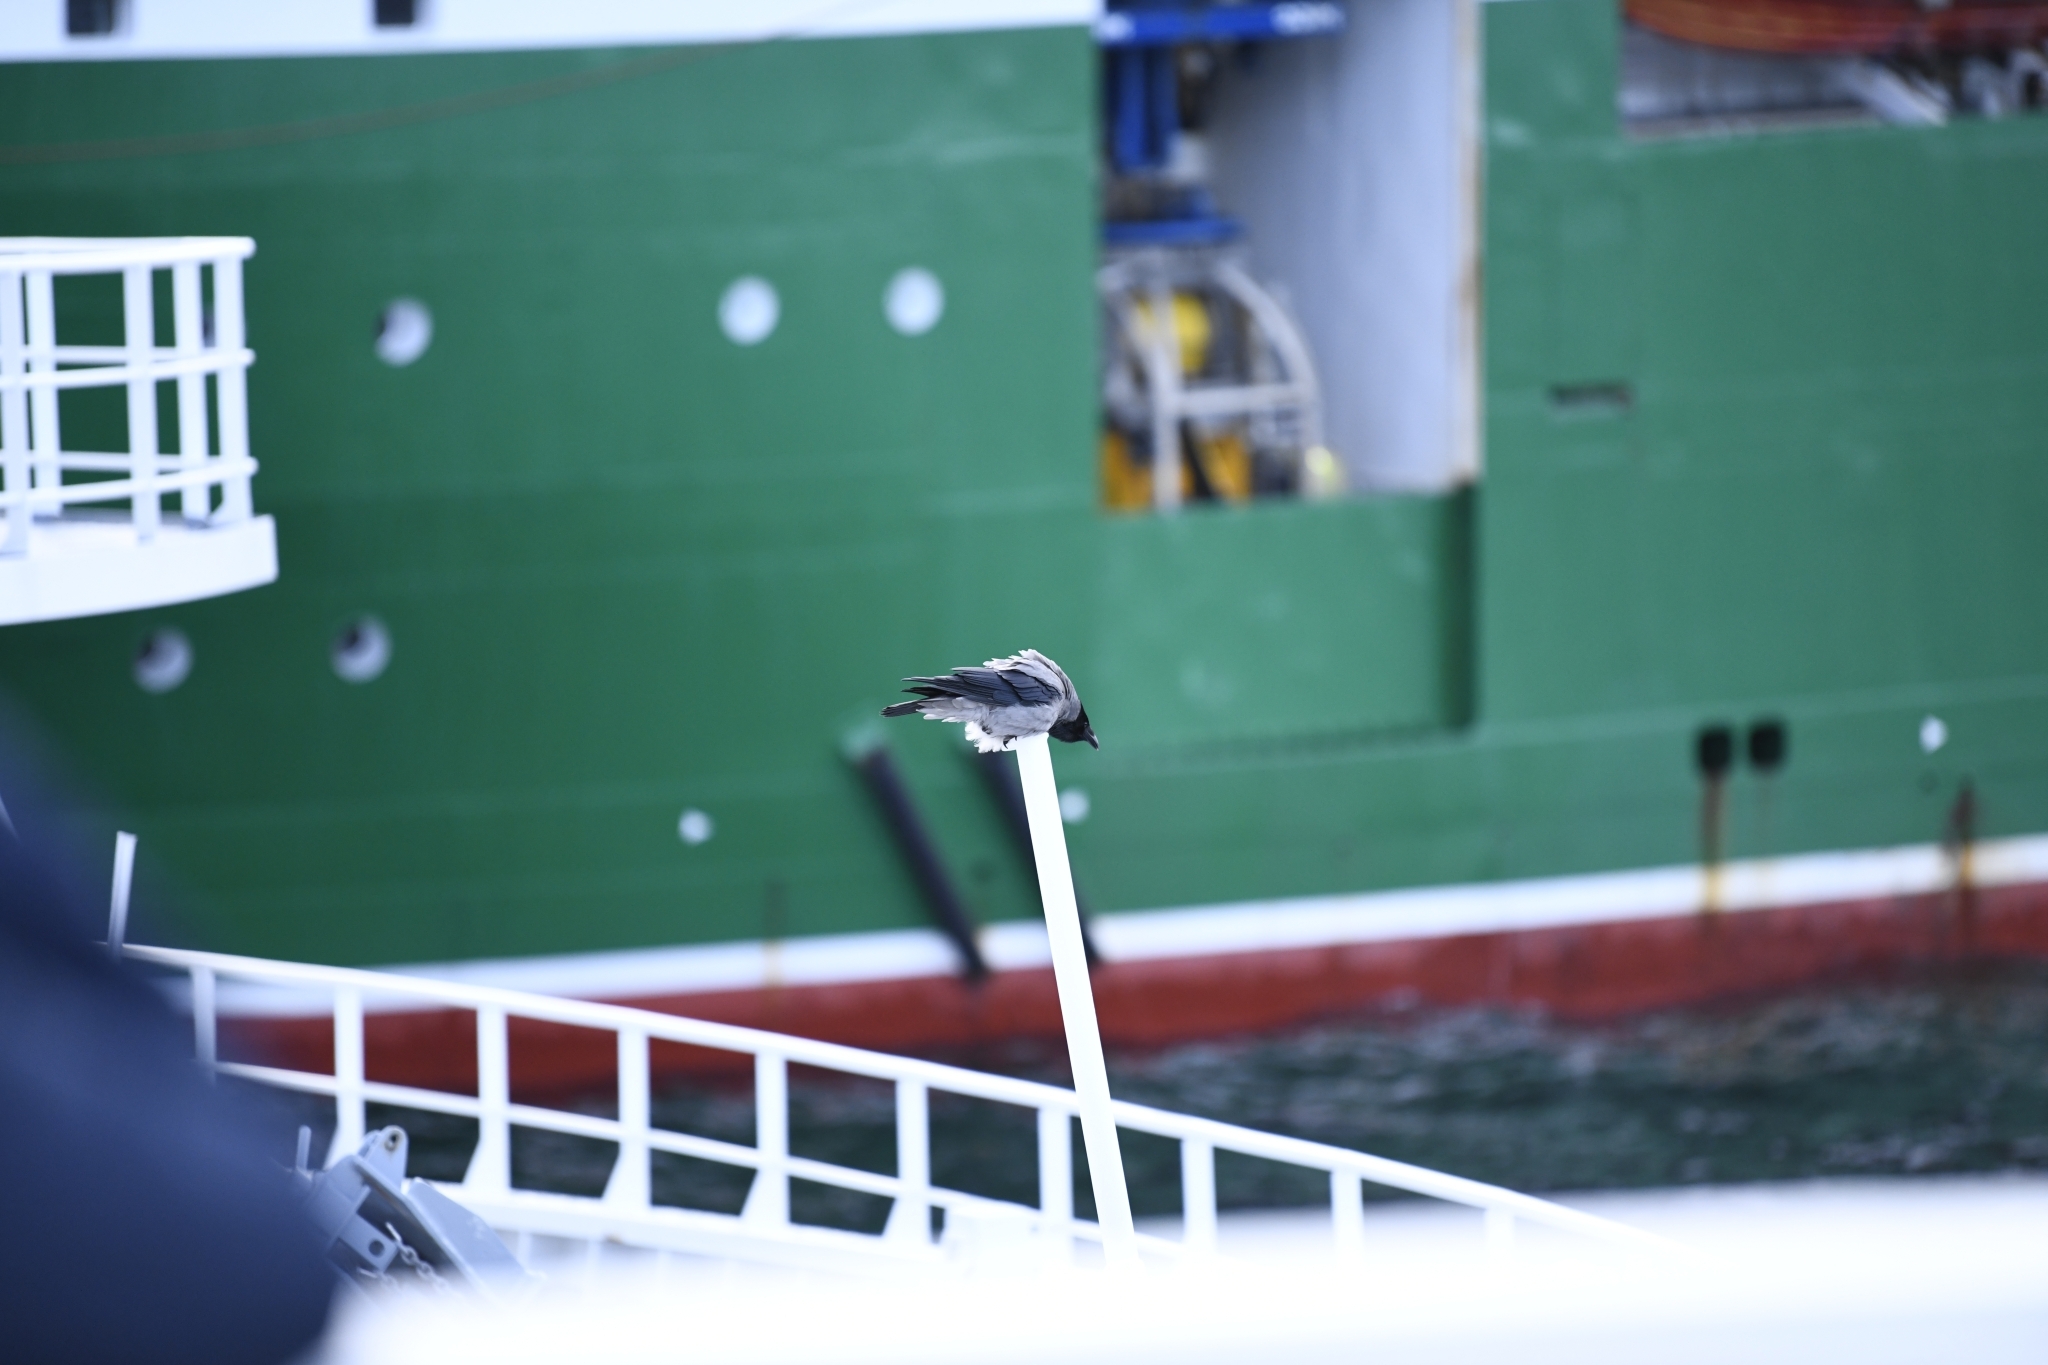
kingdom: Animalia
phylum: Chordata
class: Aves
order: Passeriformes
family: Corvidae
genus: Corvus
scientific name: Corvus cornix
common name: Hooded crow
